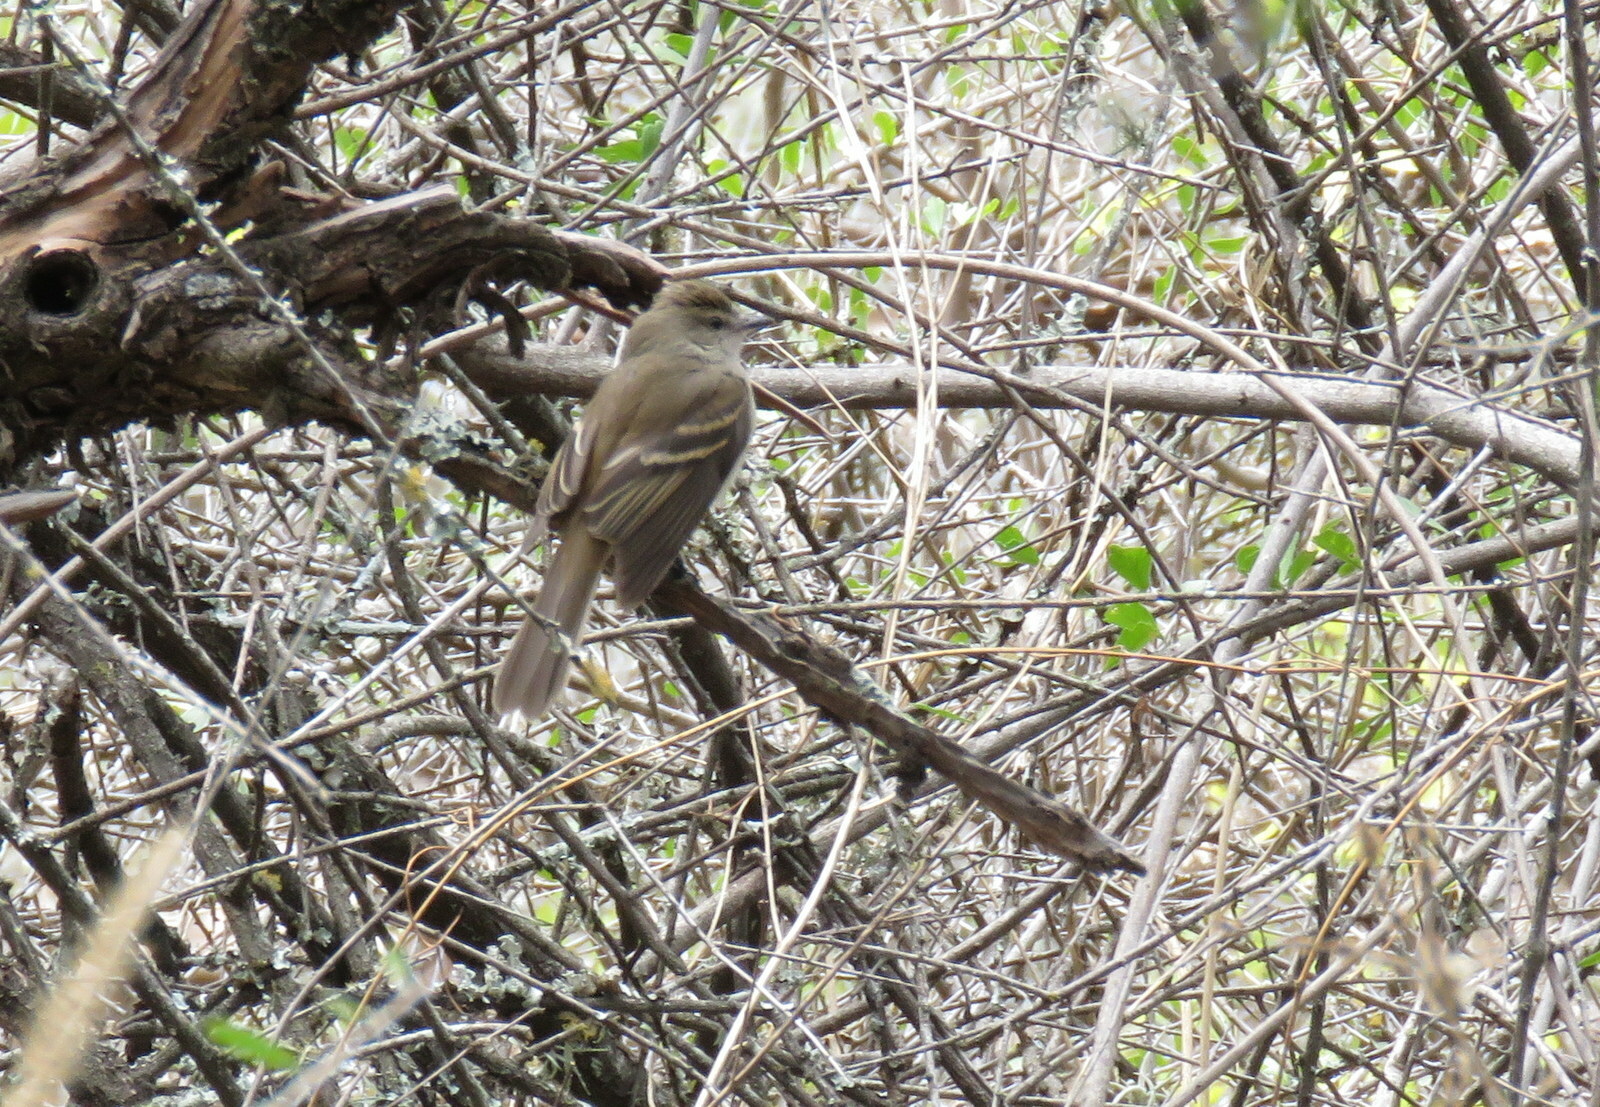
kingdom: Animalia
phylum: Chordata
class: Aves
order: Passeriformes
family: Tyrannidae
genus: Cnemotriccus
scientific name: Cnemotriccus fuscatus
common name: Fuscous flycatcher
